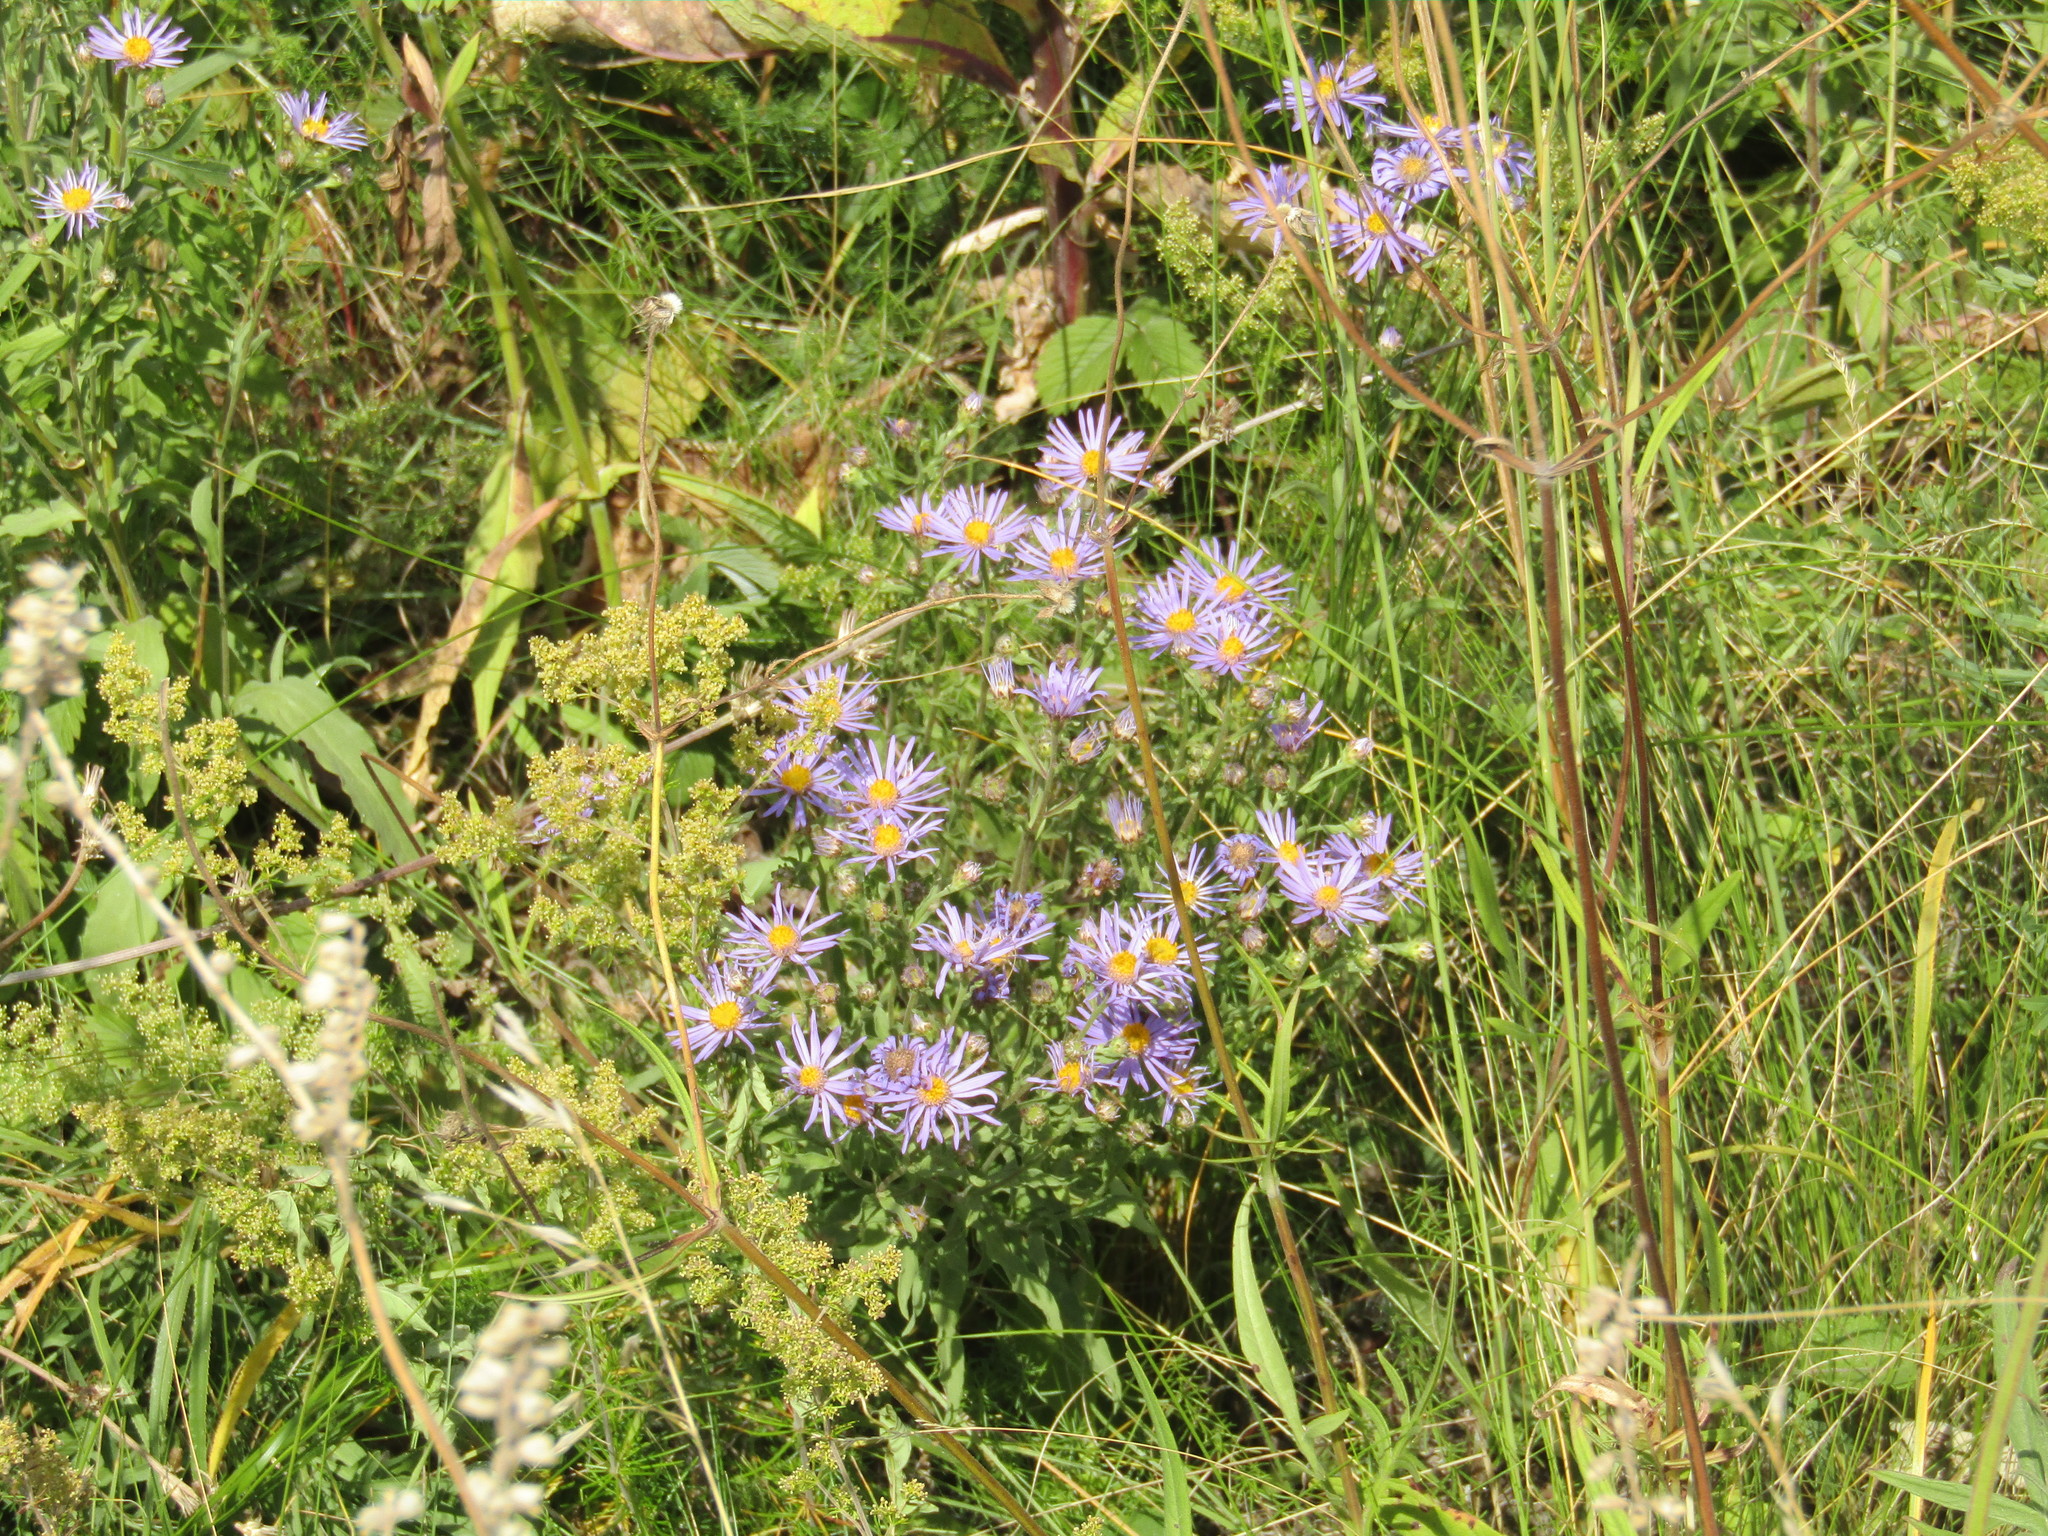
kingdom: Plantae
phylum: Tracheophyta
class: Magnoliopsida
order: Asterales
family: Asteraceae
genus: Aster
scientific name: Aster amellus
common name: European michaelmas daisy
